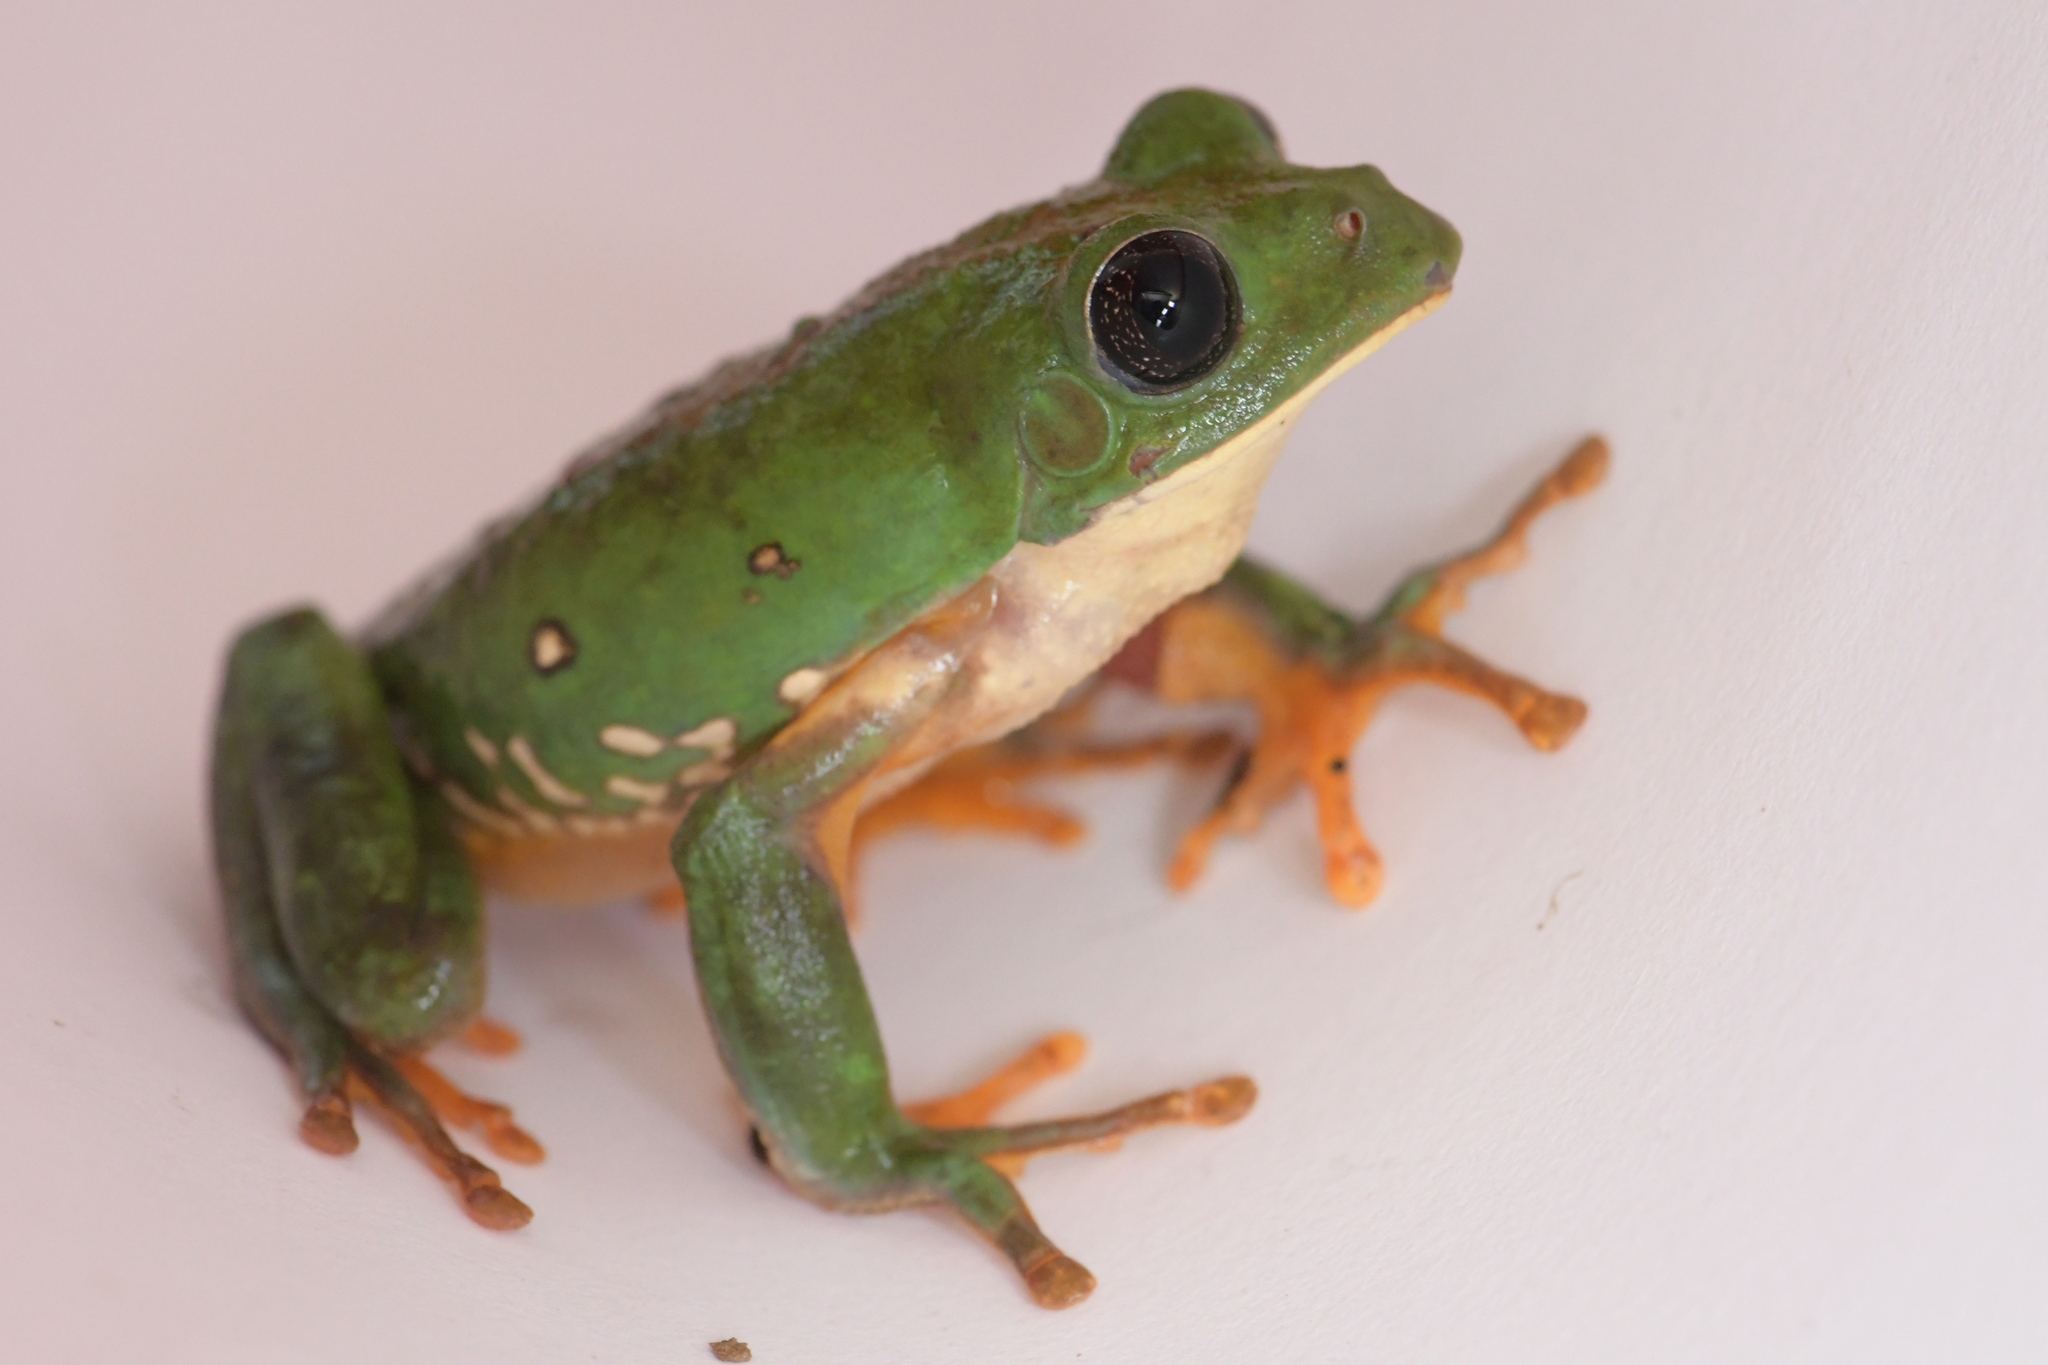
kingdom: Animalia
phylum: Chordata
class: Amphibia
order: Anura
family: Phyllomedusidae
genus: Agalychnis
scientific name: Agalychnis dacnicolor
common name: Mexican giant tree frog
